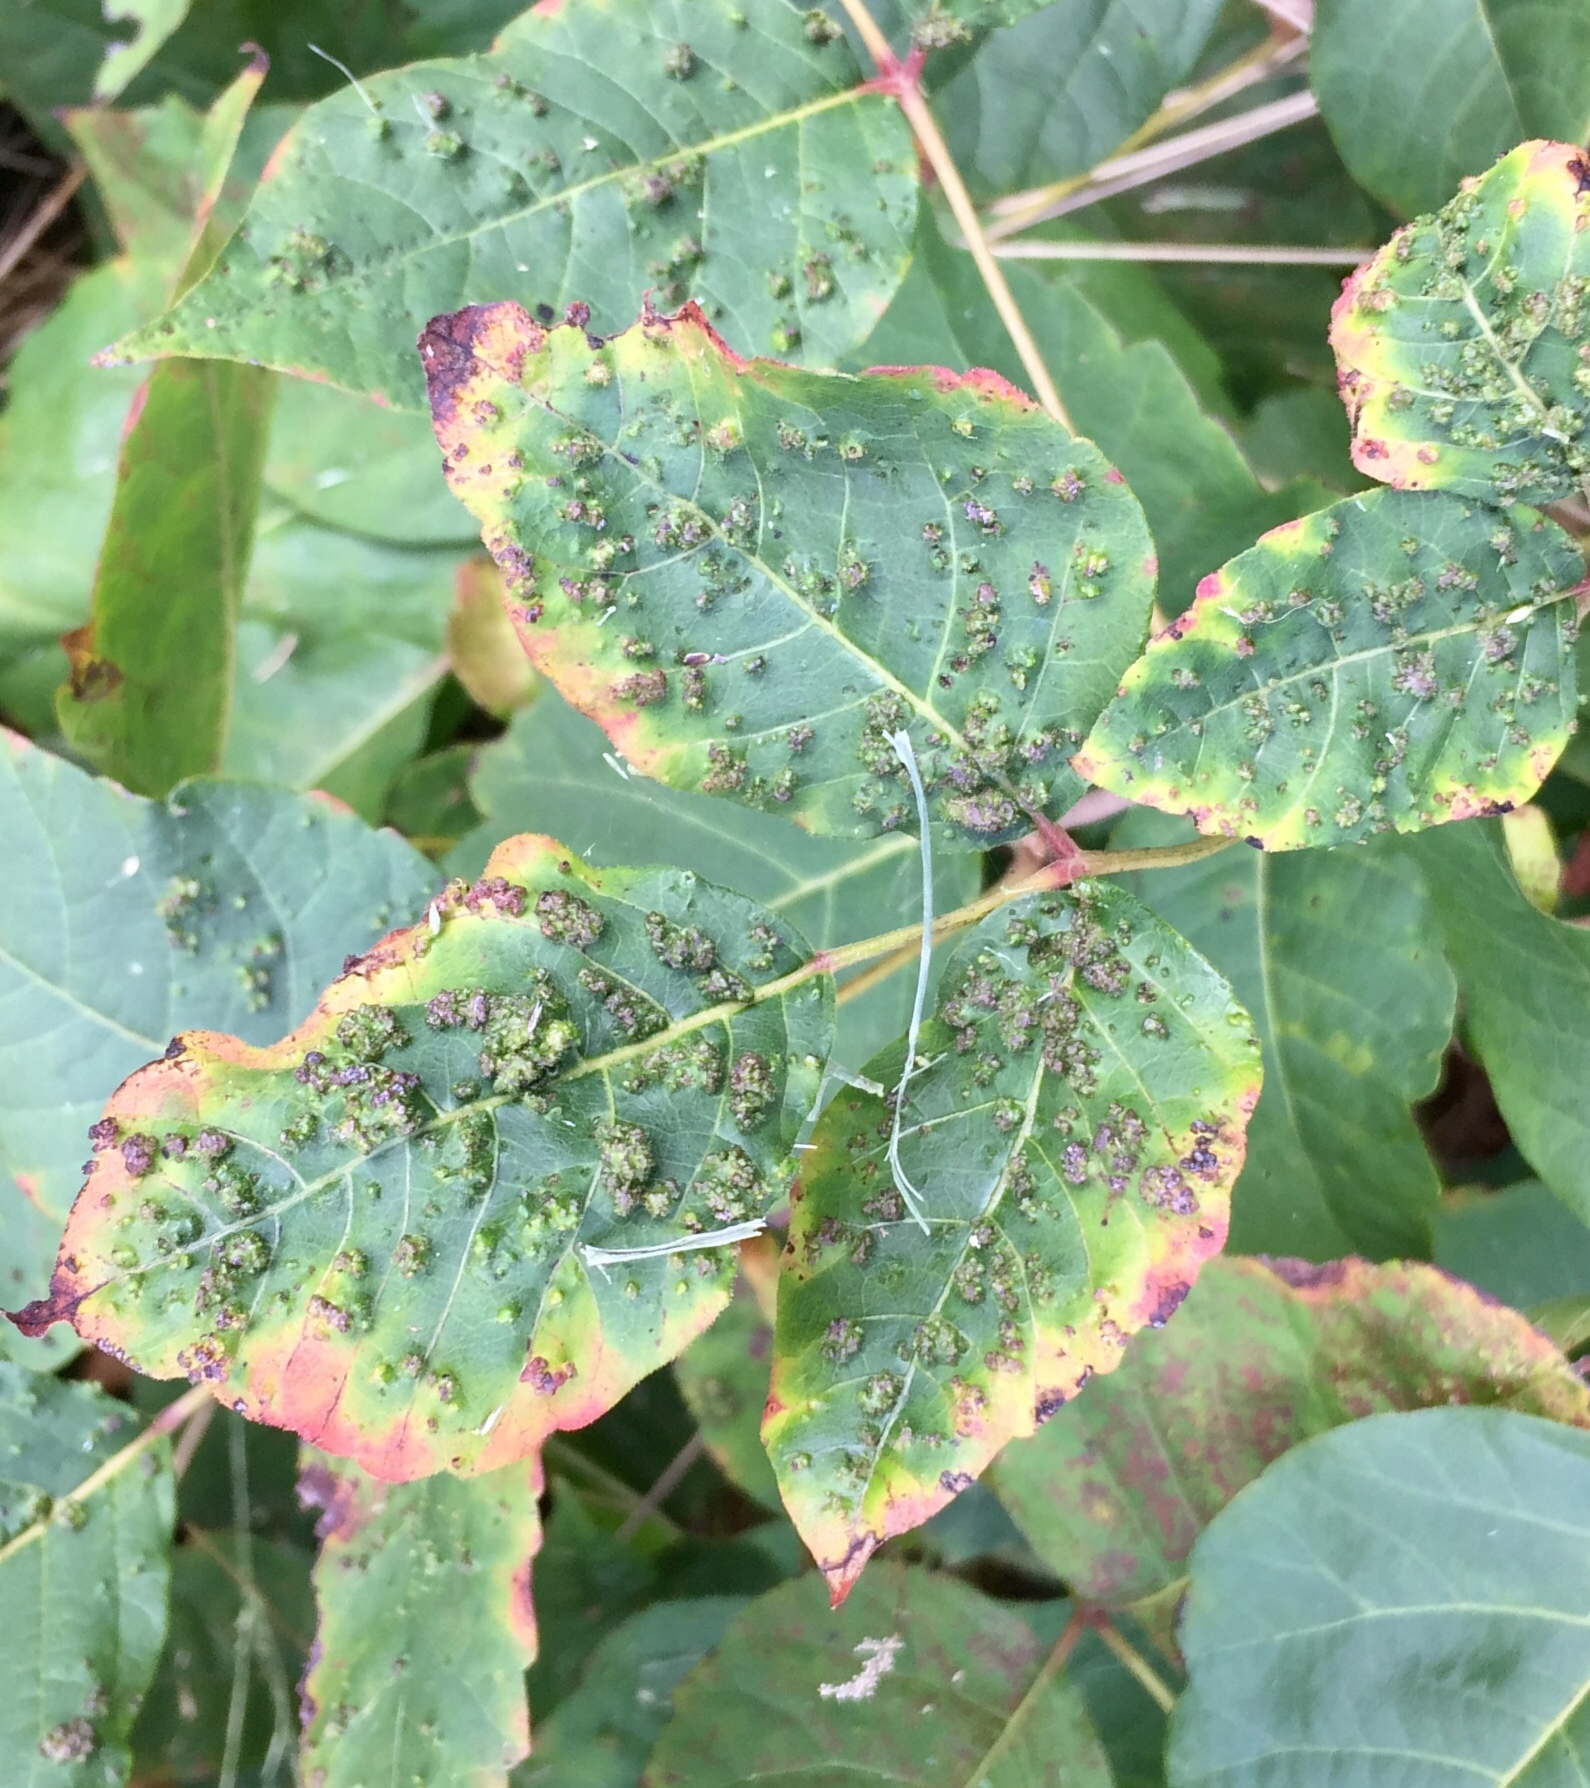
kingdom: Animalia
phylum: Arthropoda
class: Arachnida
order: Trombidiformes
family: Eriophyidae
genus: Aculops
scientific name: Aculops
